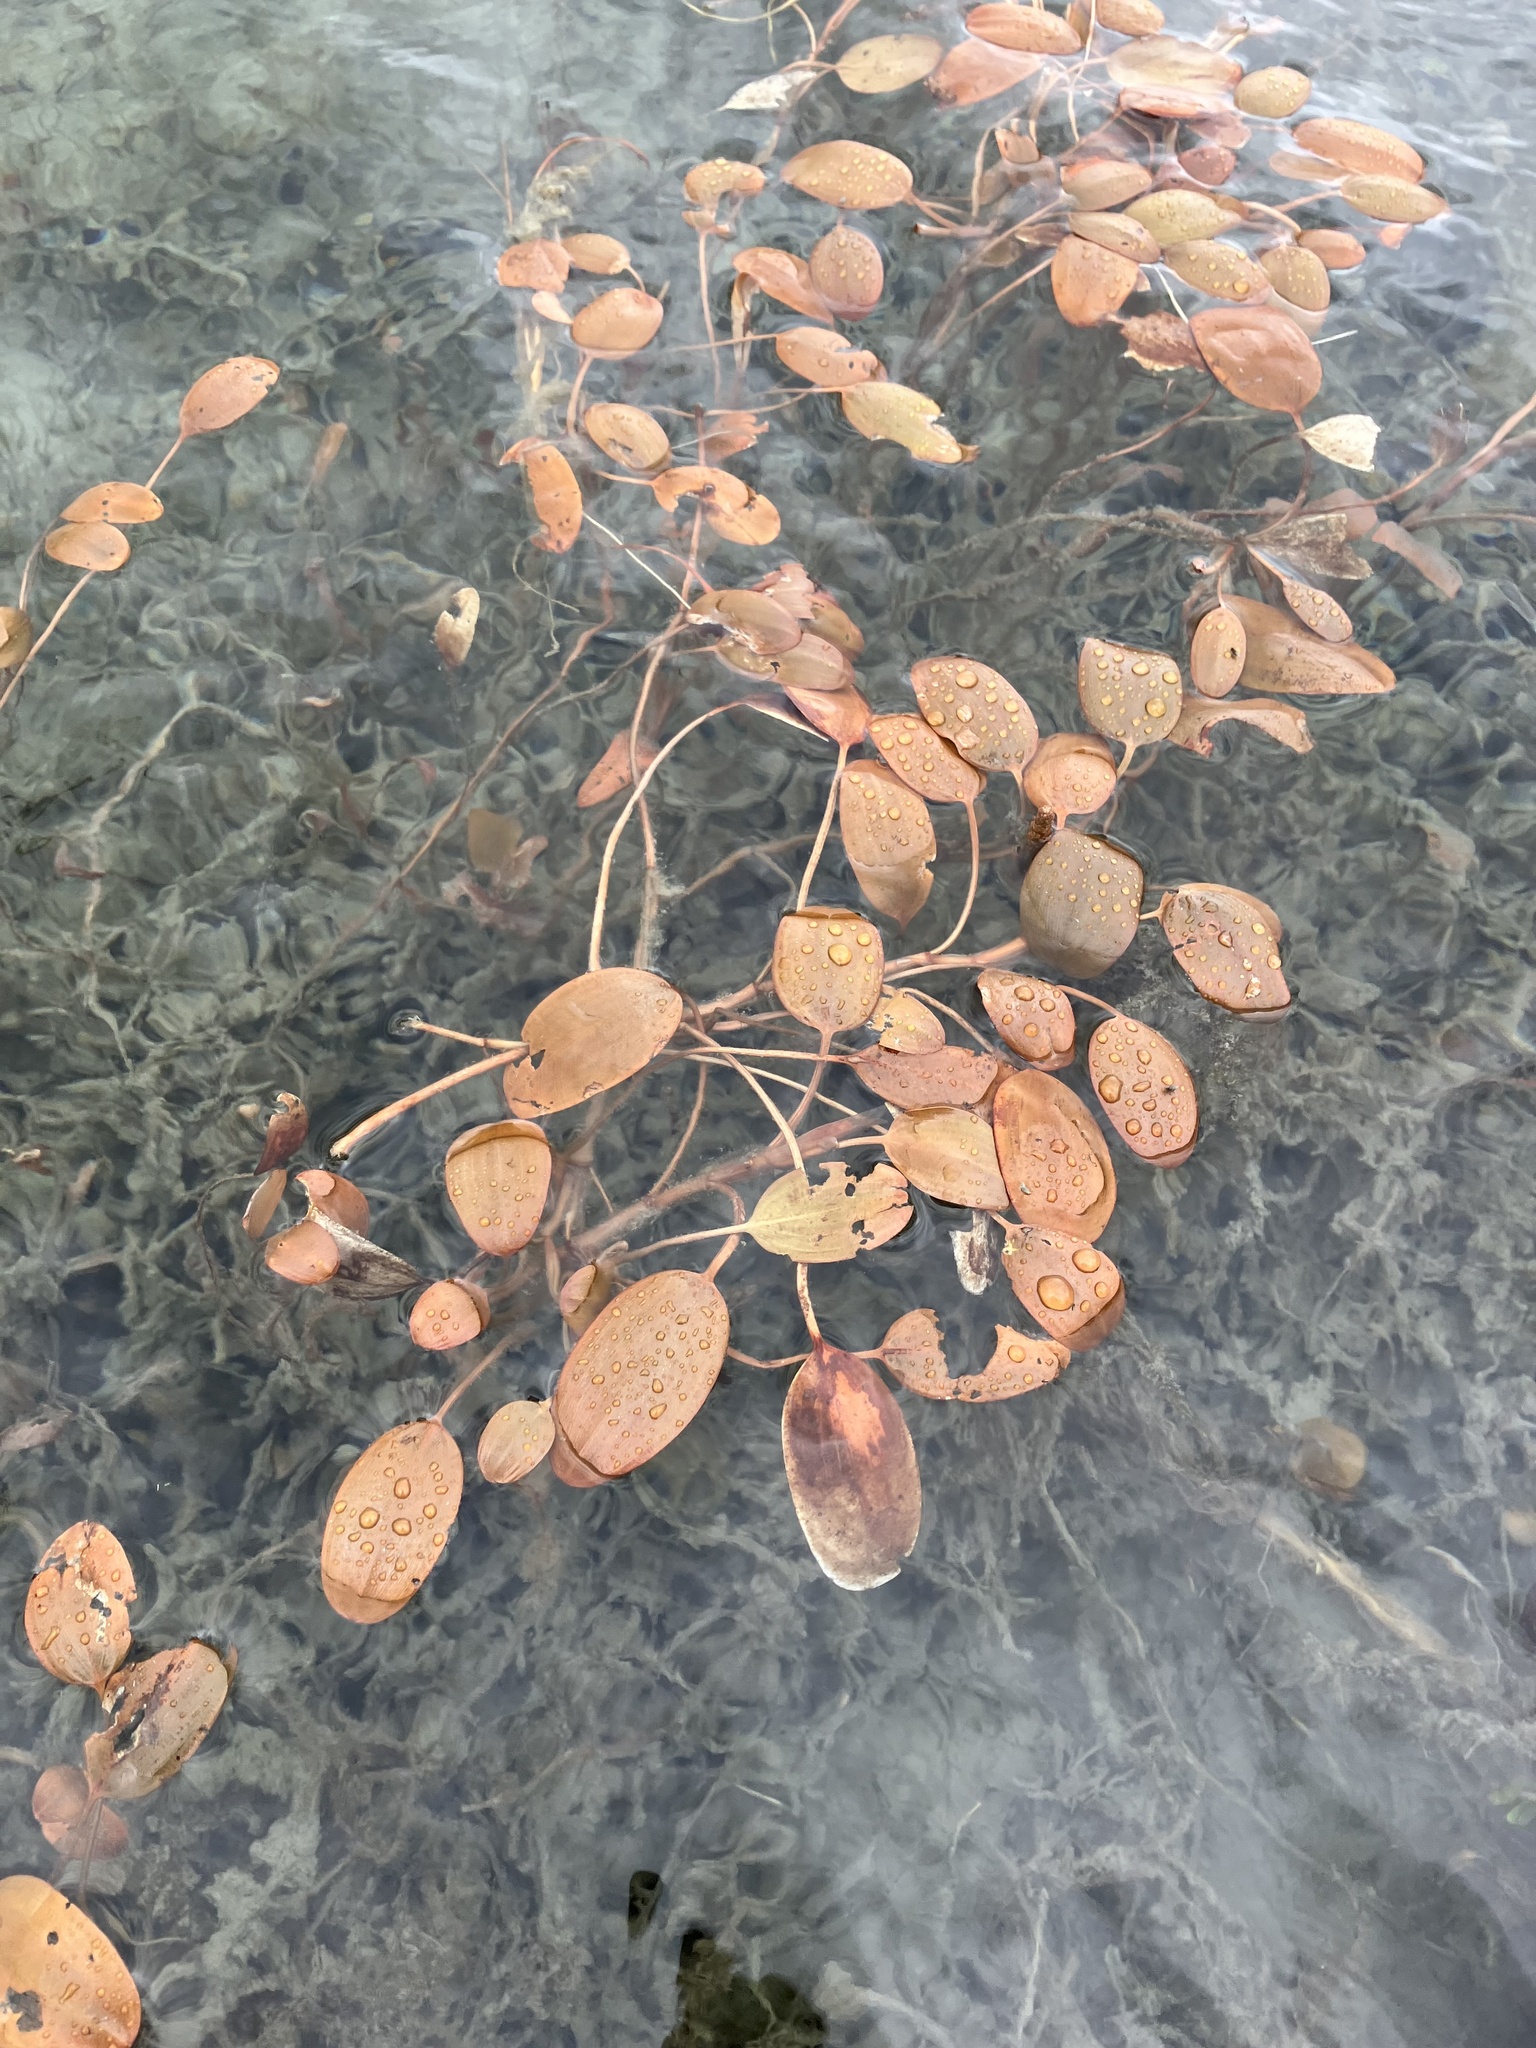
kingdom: Plantae
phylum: Tracheophyta
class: Liliopsida
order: Alismatales
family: Potamogetonaceae
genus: Potamogeton
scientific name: Potamogeton cheesemanii
